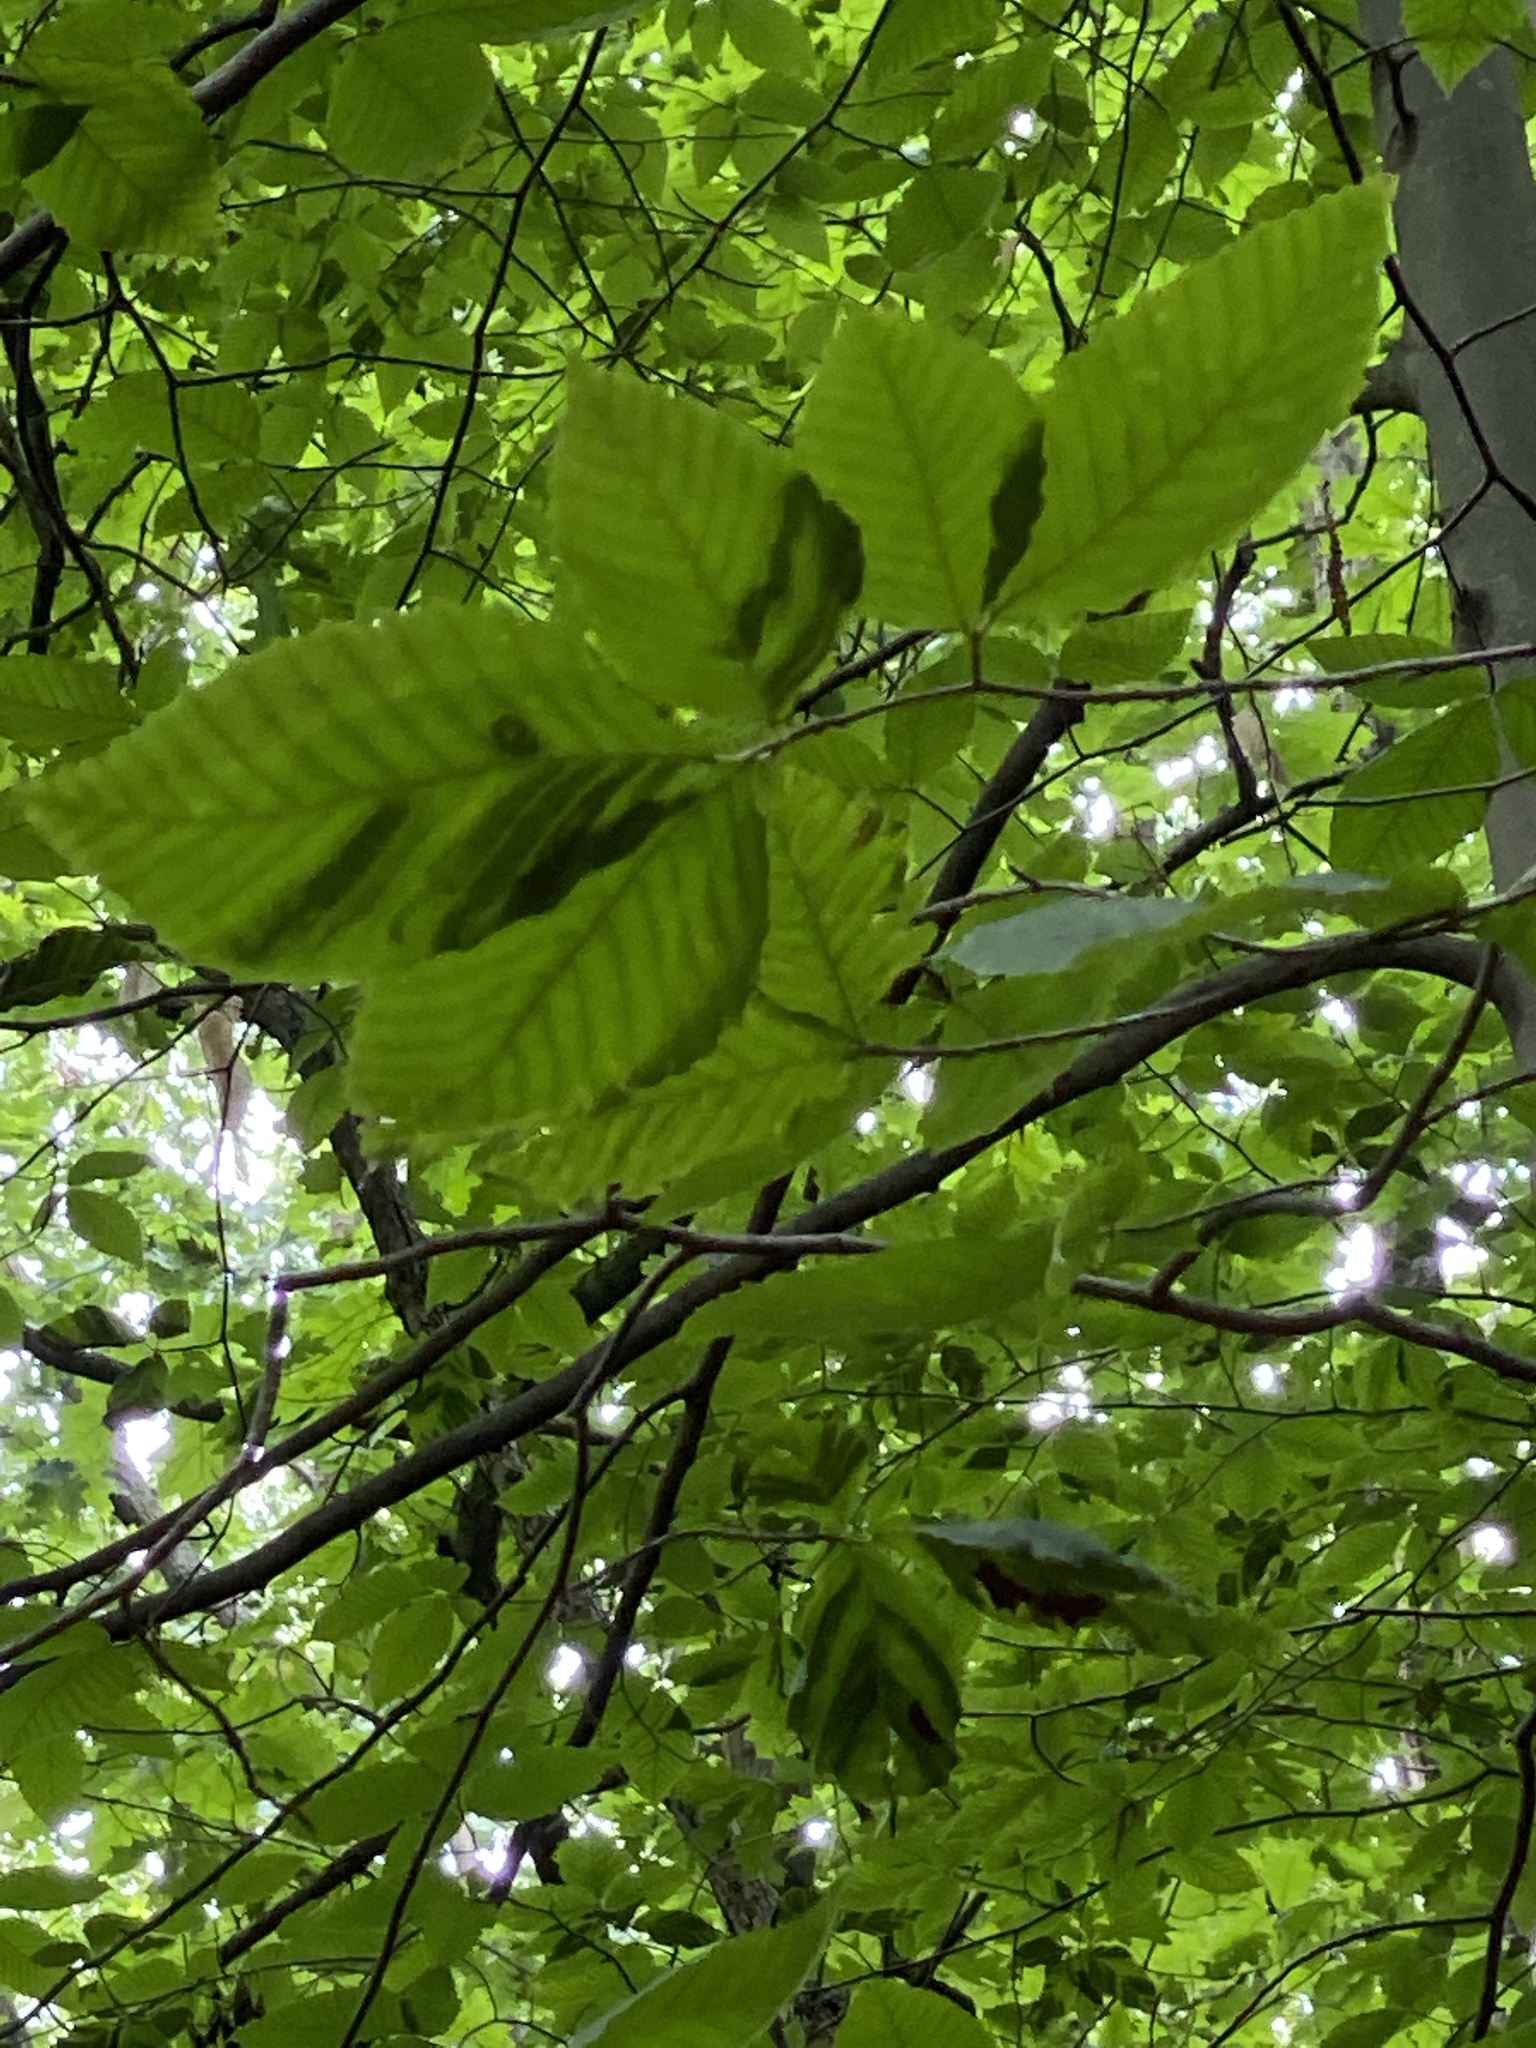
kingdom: Plantae
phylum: Tracheophyta
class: Magnoliopsida
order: Fagales
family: Fagaceae
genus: Fagus
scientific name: Fagus grandifolia
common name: American beech
